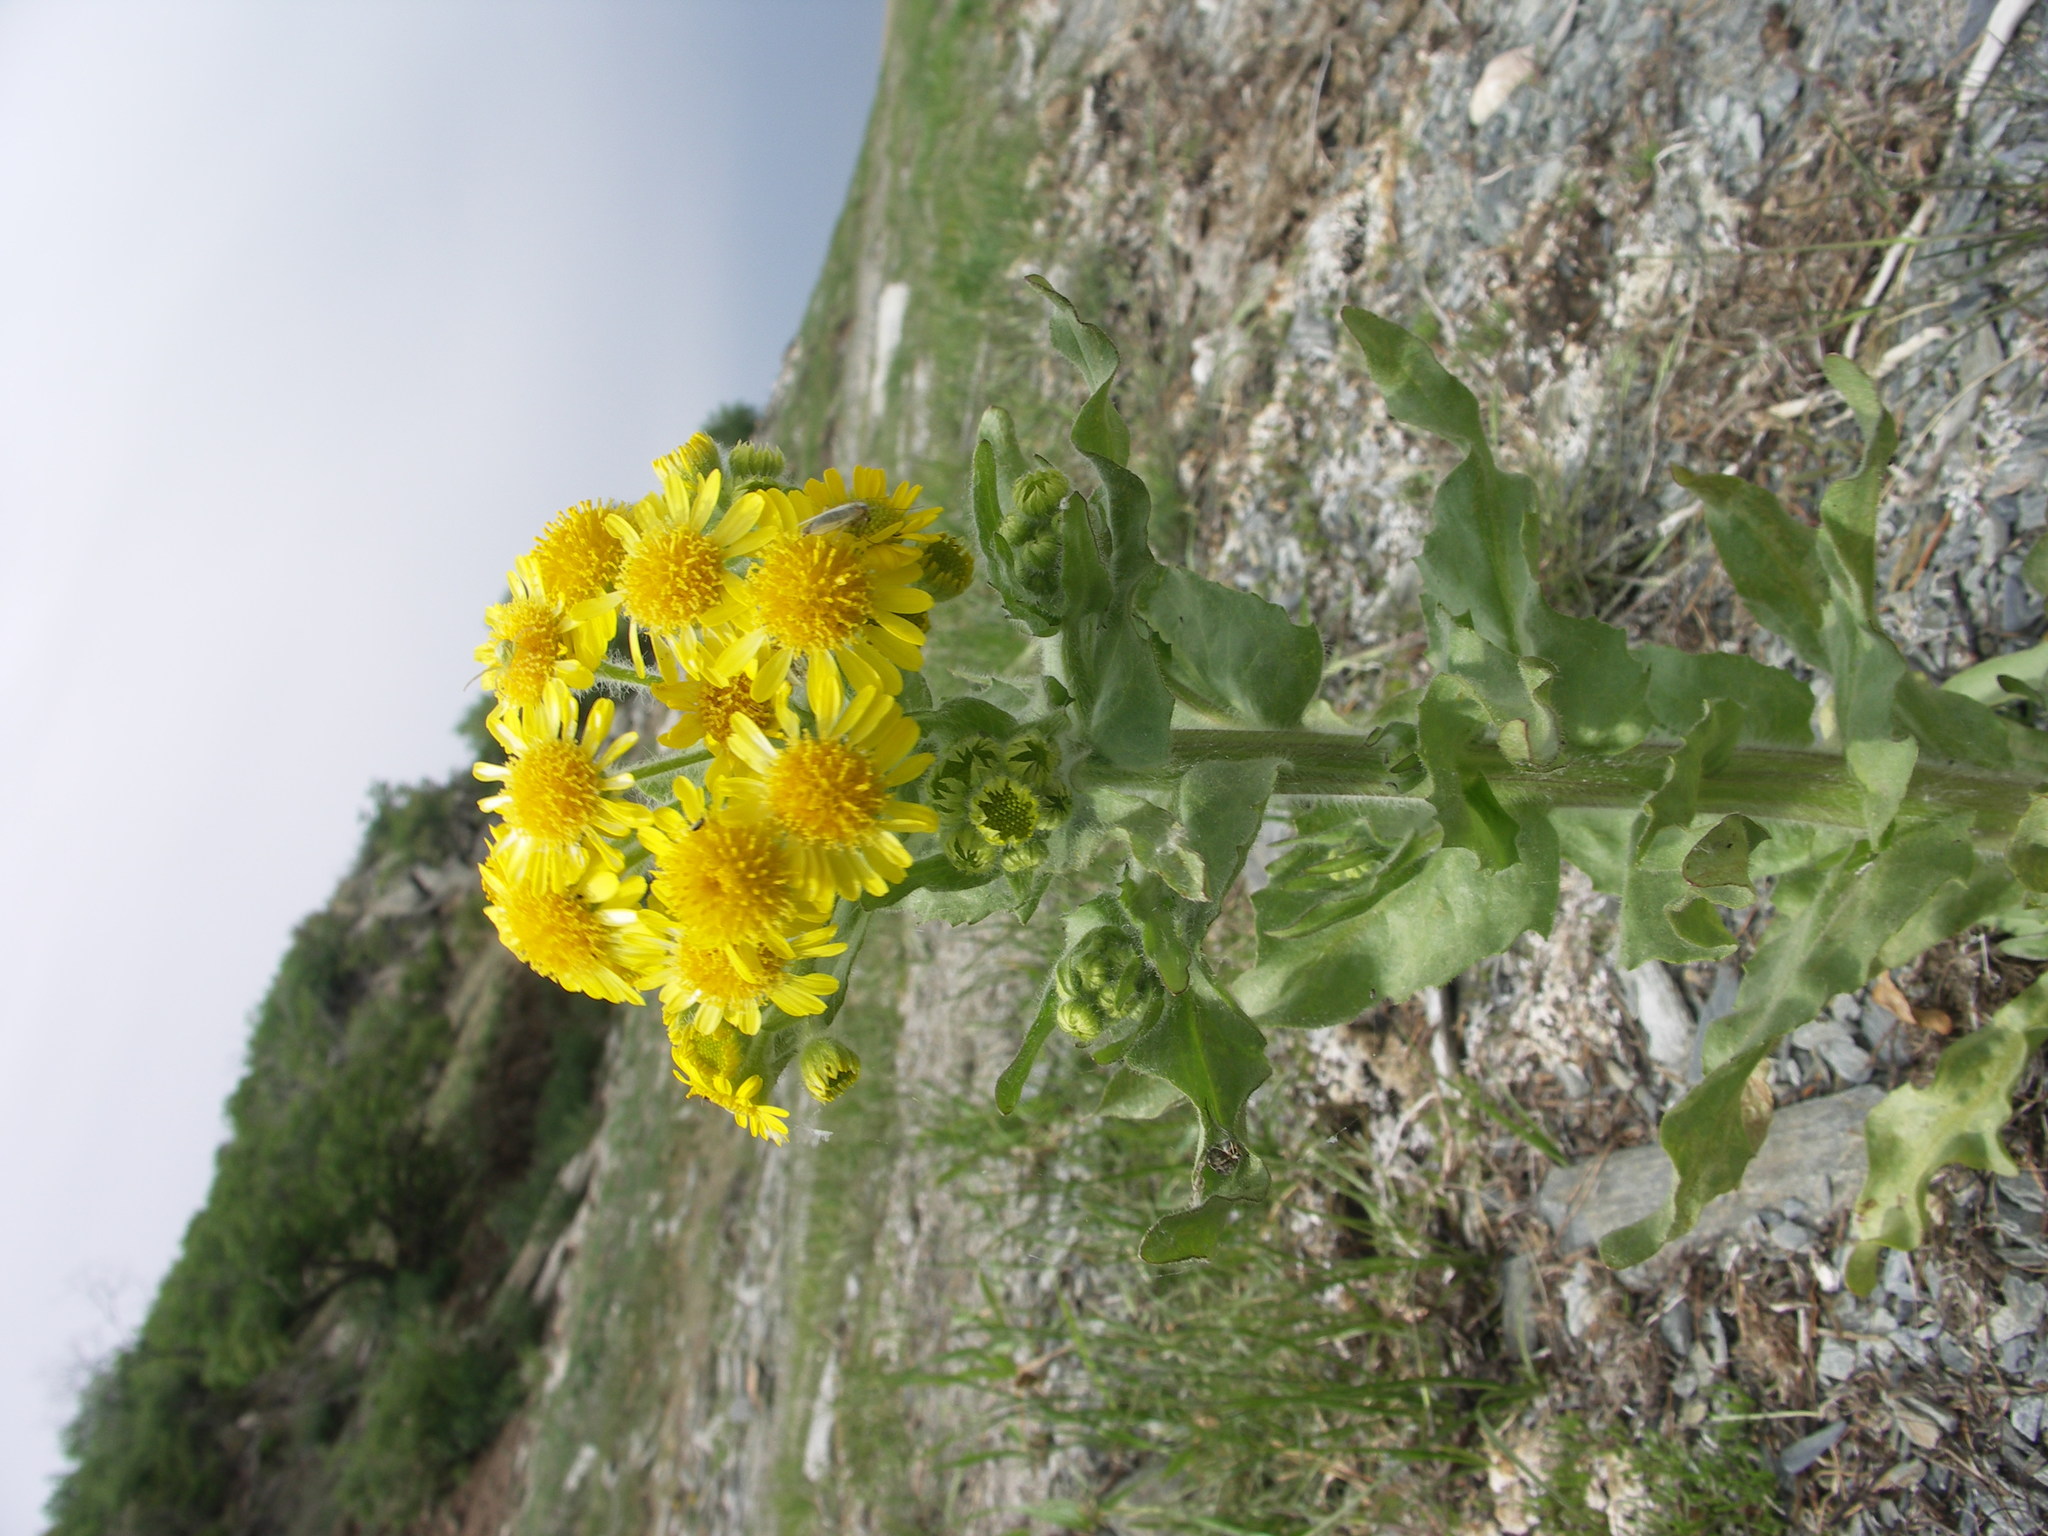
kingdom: Plantae
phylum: Tracheophyta
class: Magnoliopsida
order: Asterales
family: Asteraceae
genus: Tephroseris
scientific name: Tephroseris palustris
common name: Marsh fleawort
